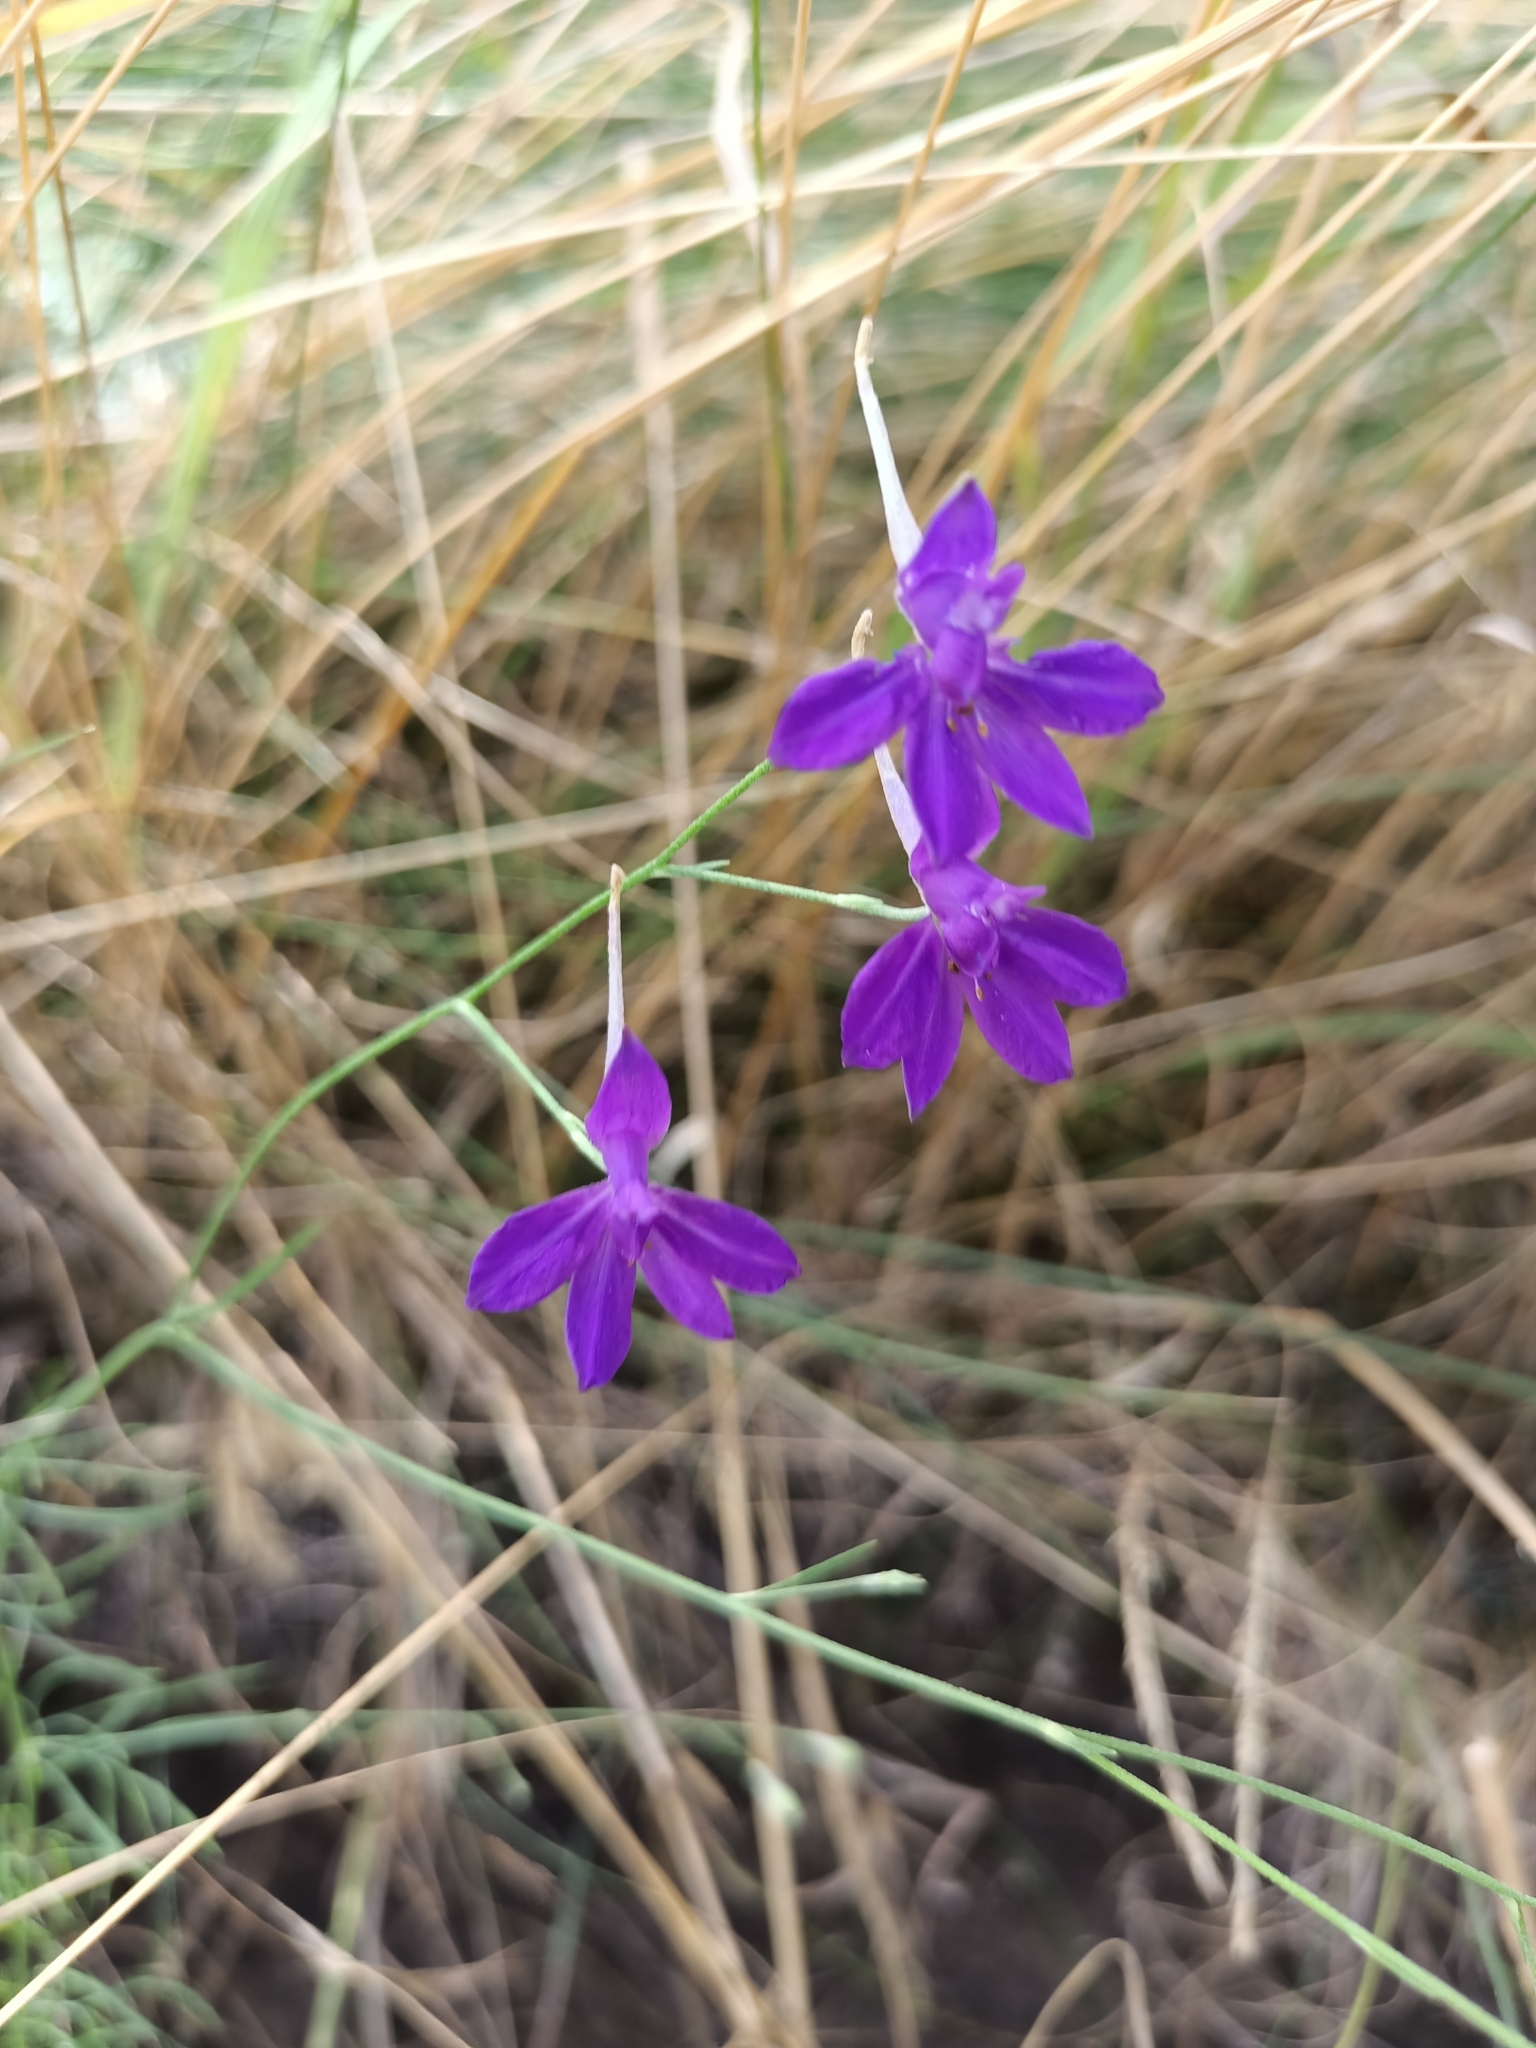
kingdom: Plantae
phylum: Tracheophyta
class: Magnoliopsida
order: Ranunculales
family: Ranunculaceae
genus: Delphinium
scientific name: Delphinium consolida
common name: Branching larkspur
